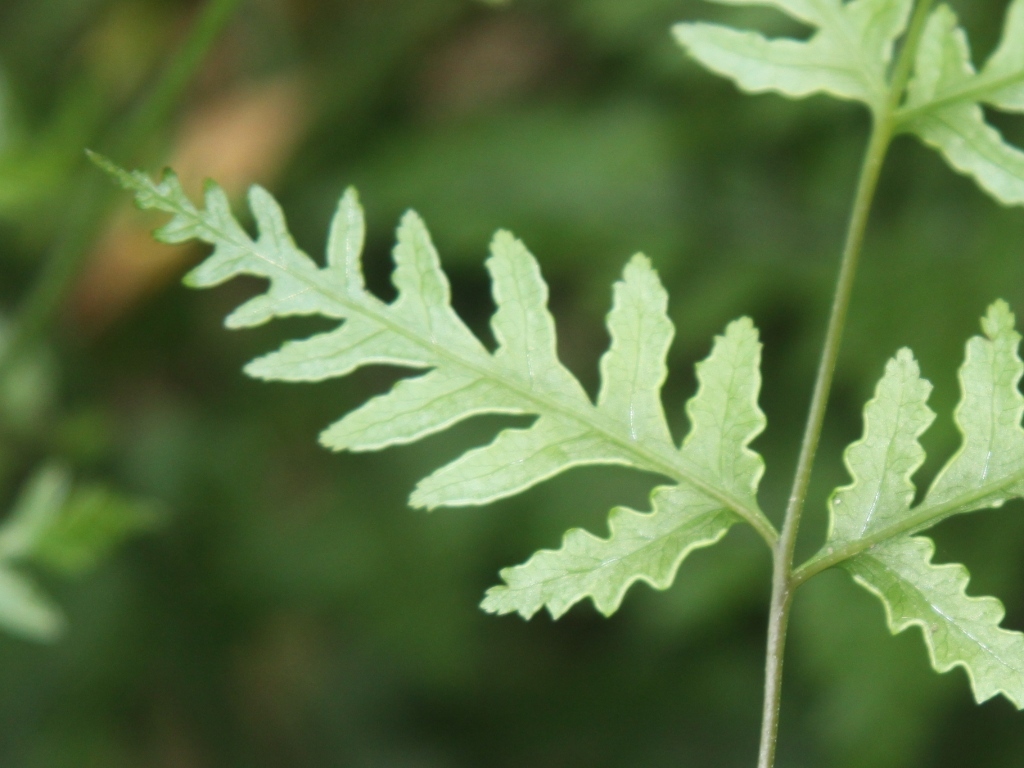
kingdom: Plantae
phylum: Tracheophyta
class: Polypodiopsida
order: Polypodiales
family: Pteridaceae
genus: Pteris
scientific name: Pteris macilenta
